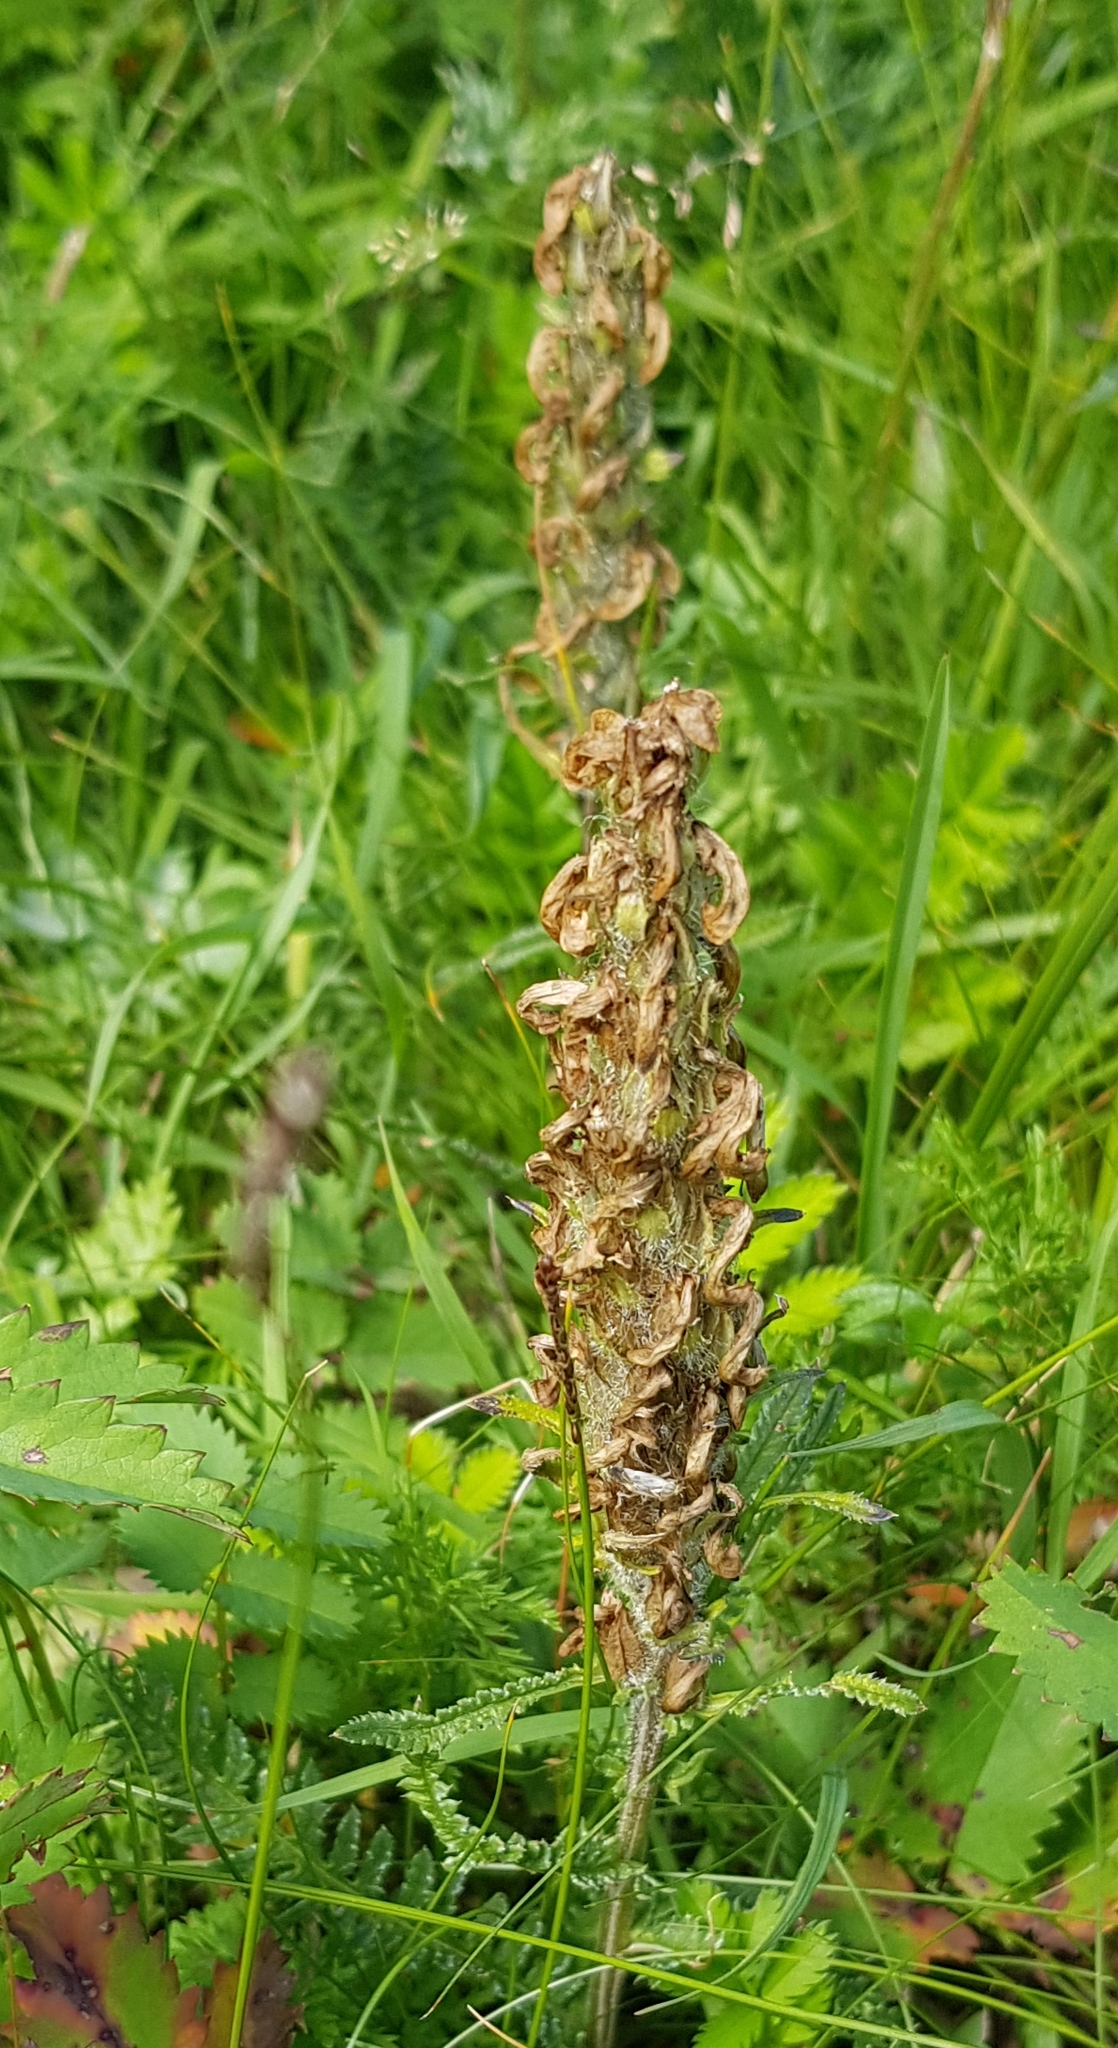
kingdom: Plantae
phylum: Tracheophyta
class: Magnoliopsida
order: Lamiales
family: Orobanchaceae
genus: Pedicularis
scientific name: Pedicularis dasystachys
